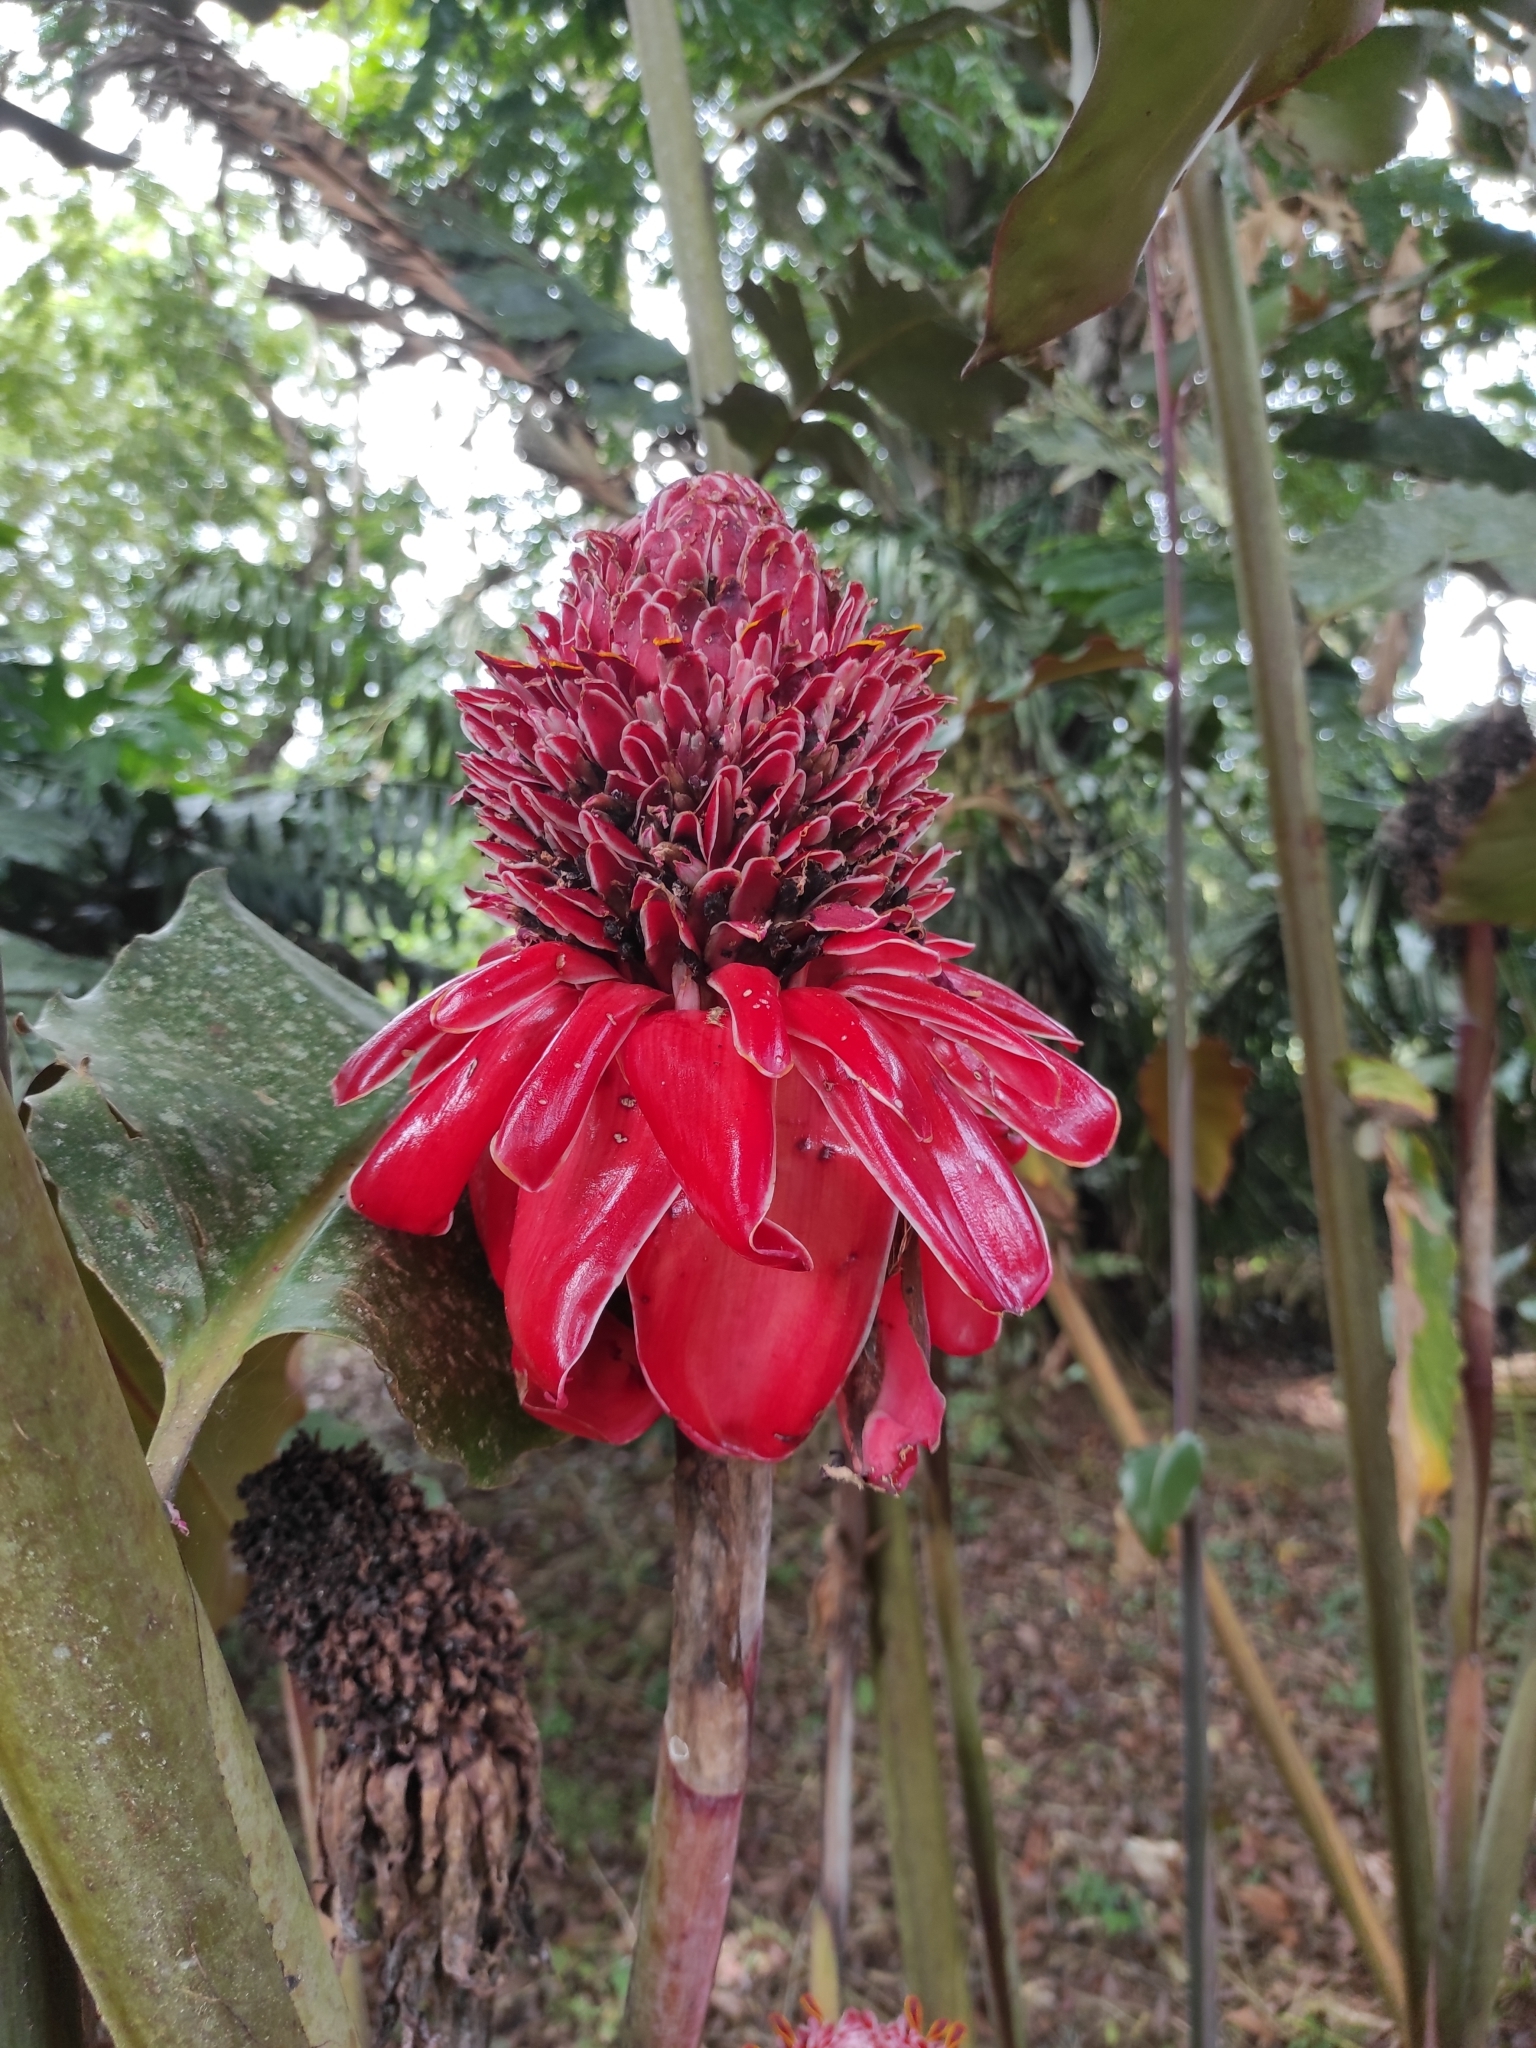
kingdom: Plantae
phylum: Tracheophyta
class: Liliopsida
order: Zingiberales
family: Zingiberaceae
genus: Etlingera
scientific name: Etlingera elatior
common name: Philippine waxflower
